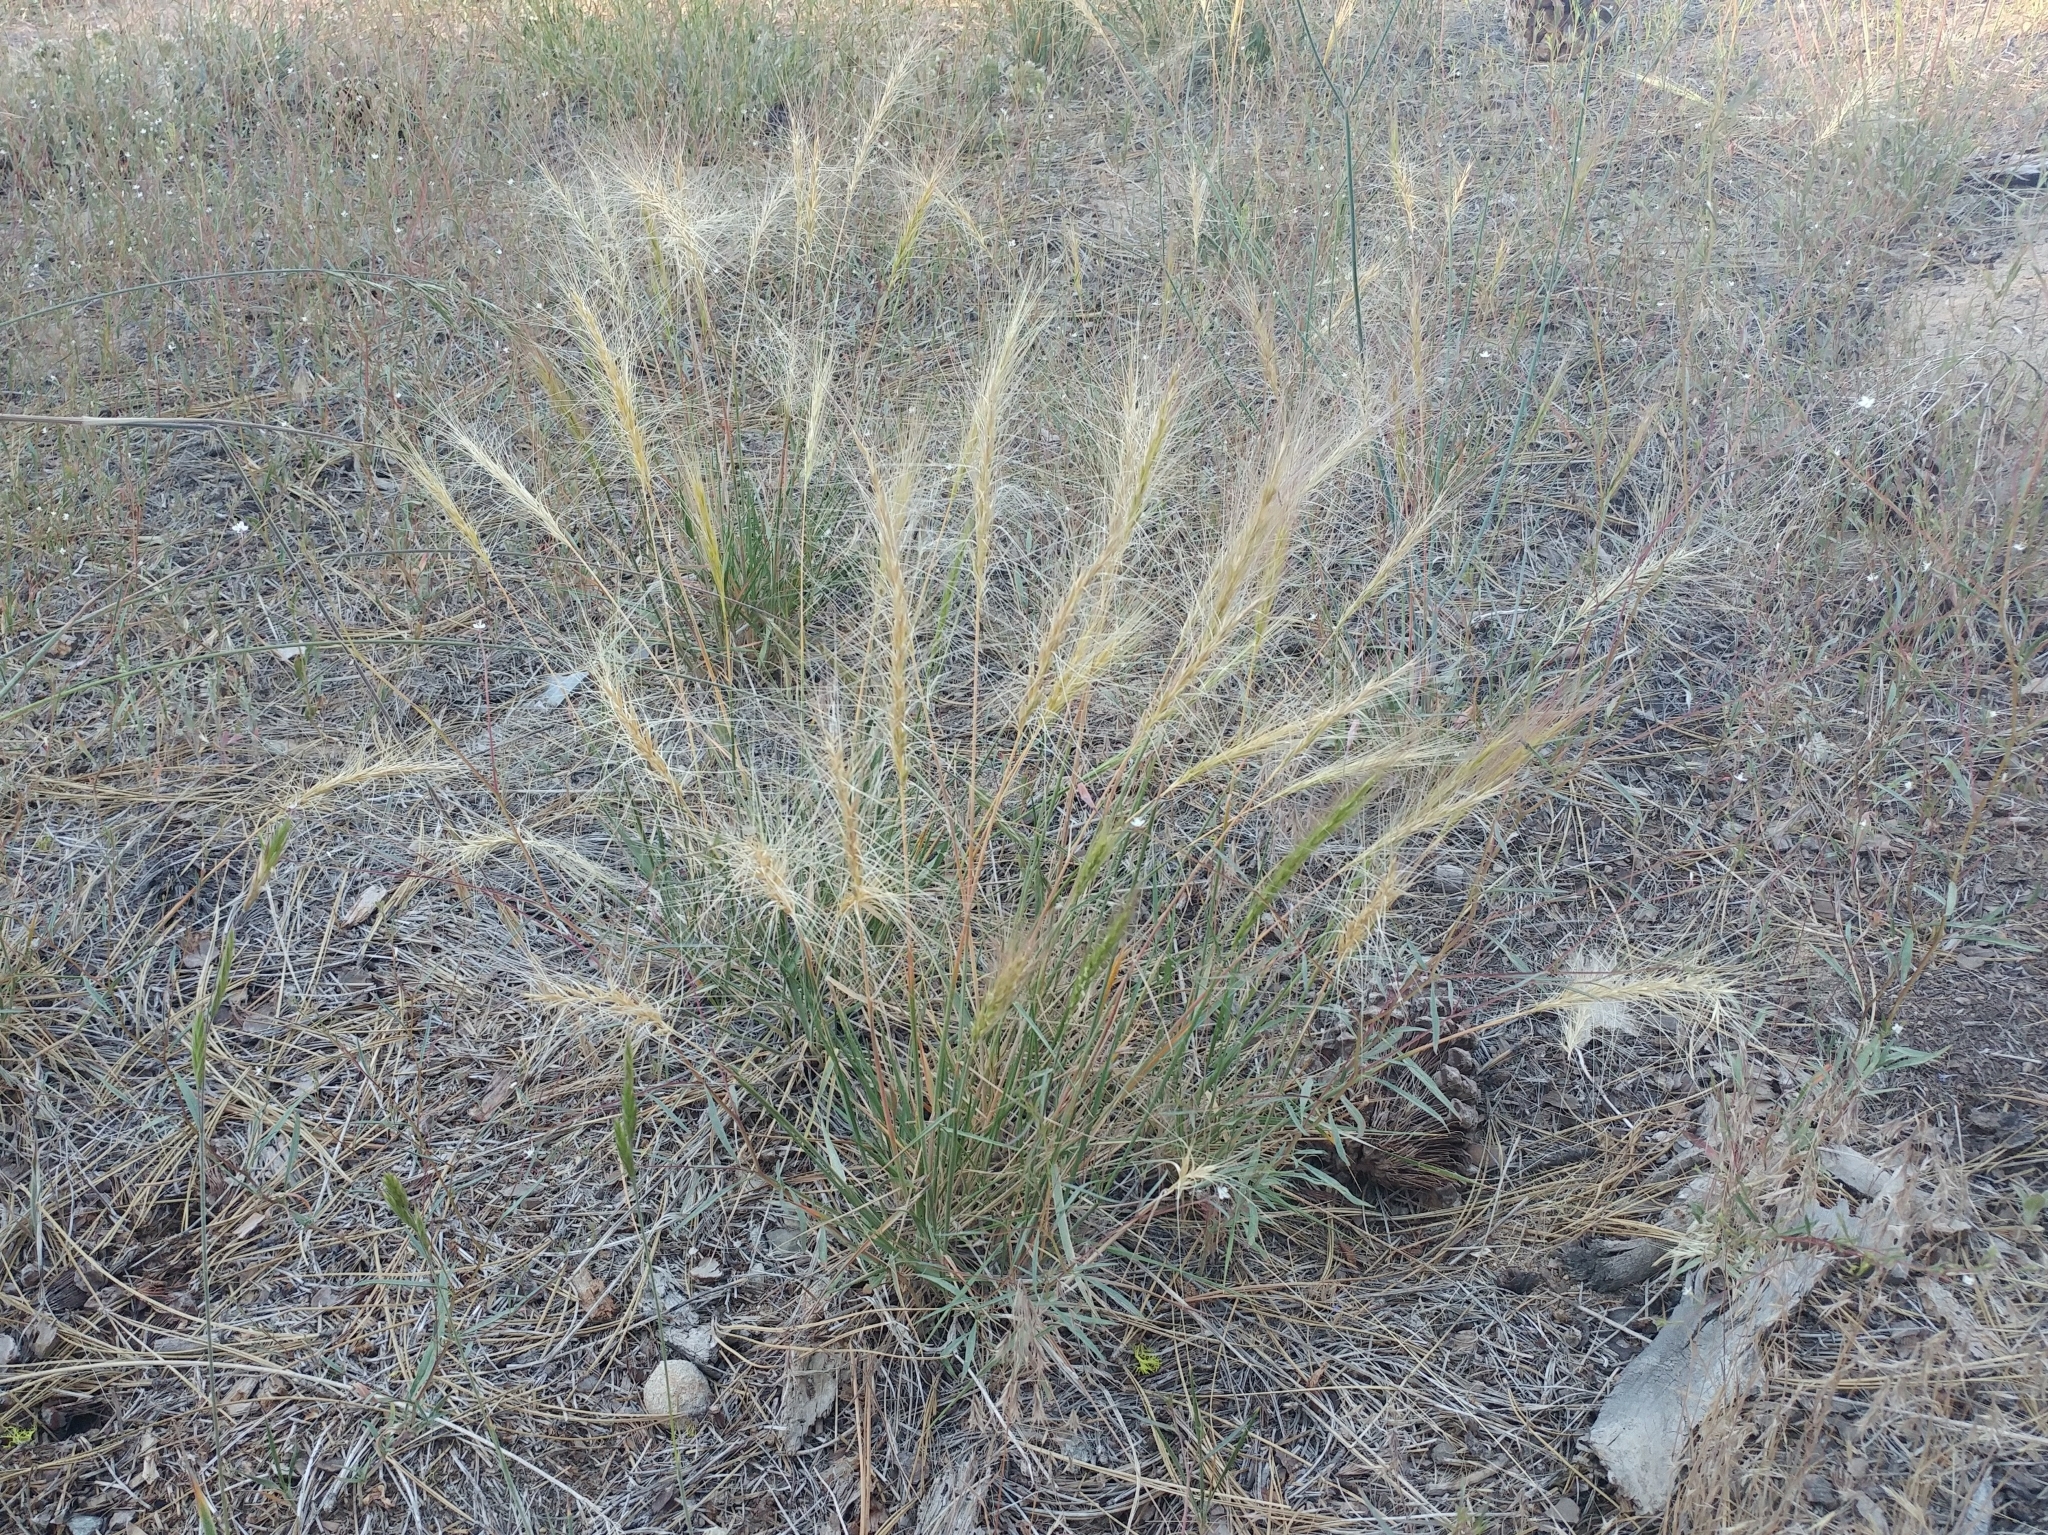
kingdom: Plantae
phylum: Tracheophyta
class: Liliopsida
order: Poales
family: Poaceae
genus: Elymus
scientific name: Elymus elymoides
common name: Bottlebrush squirreltail
